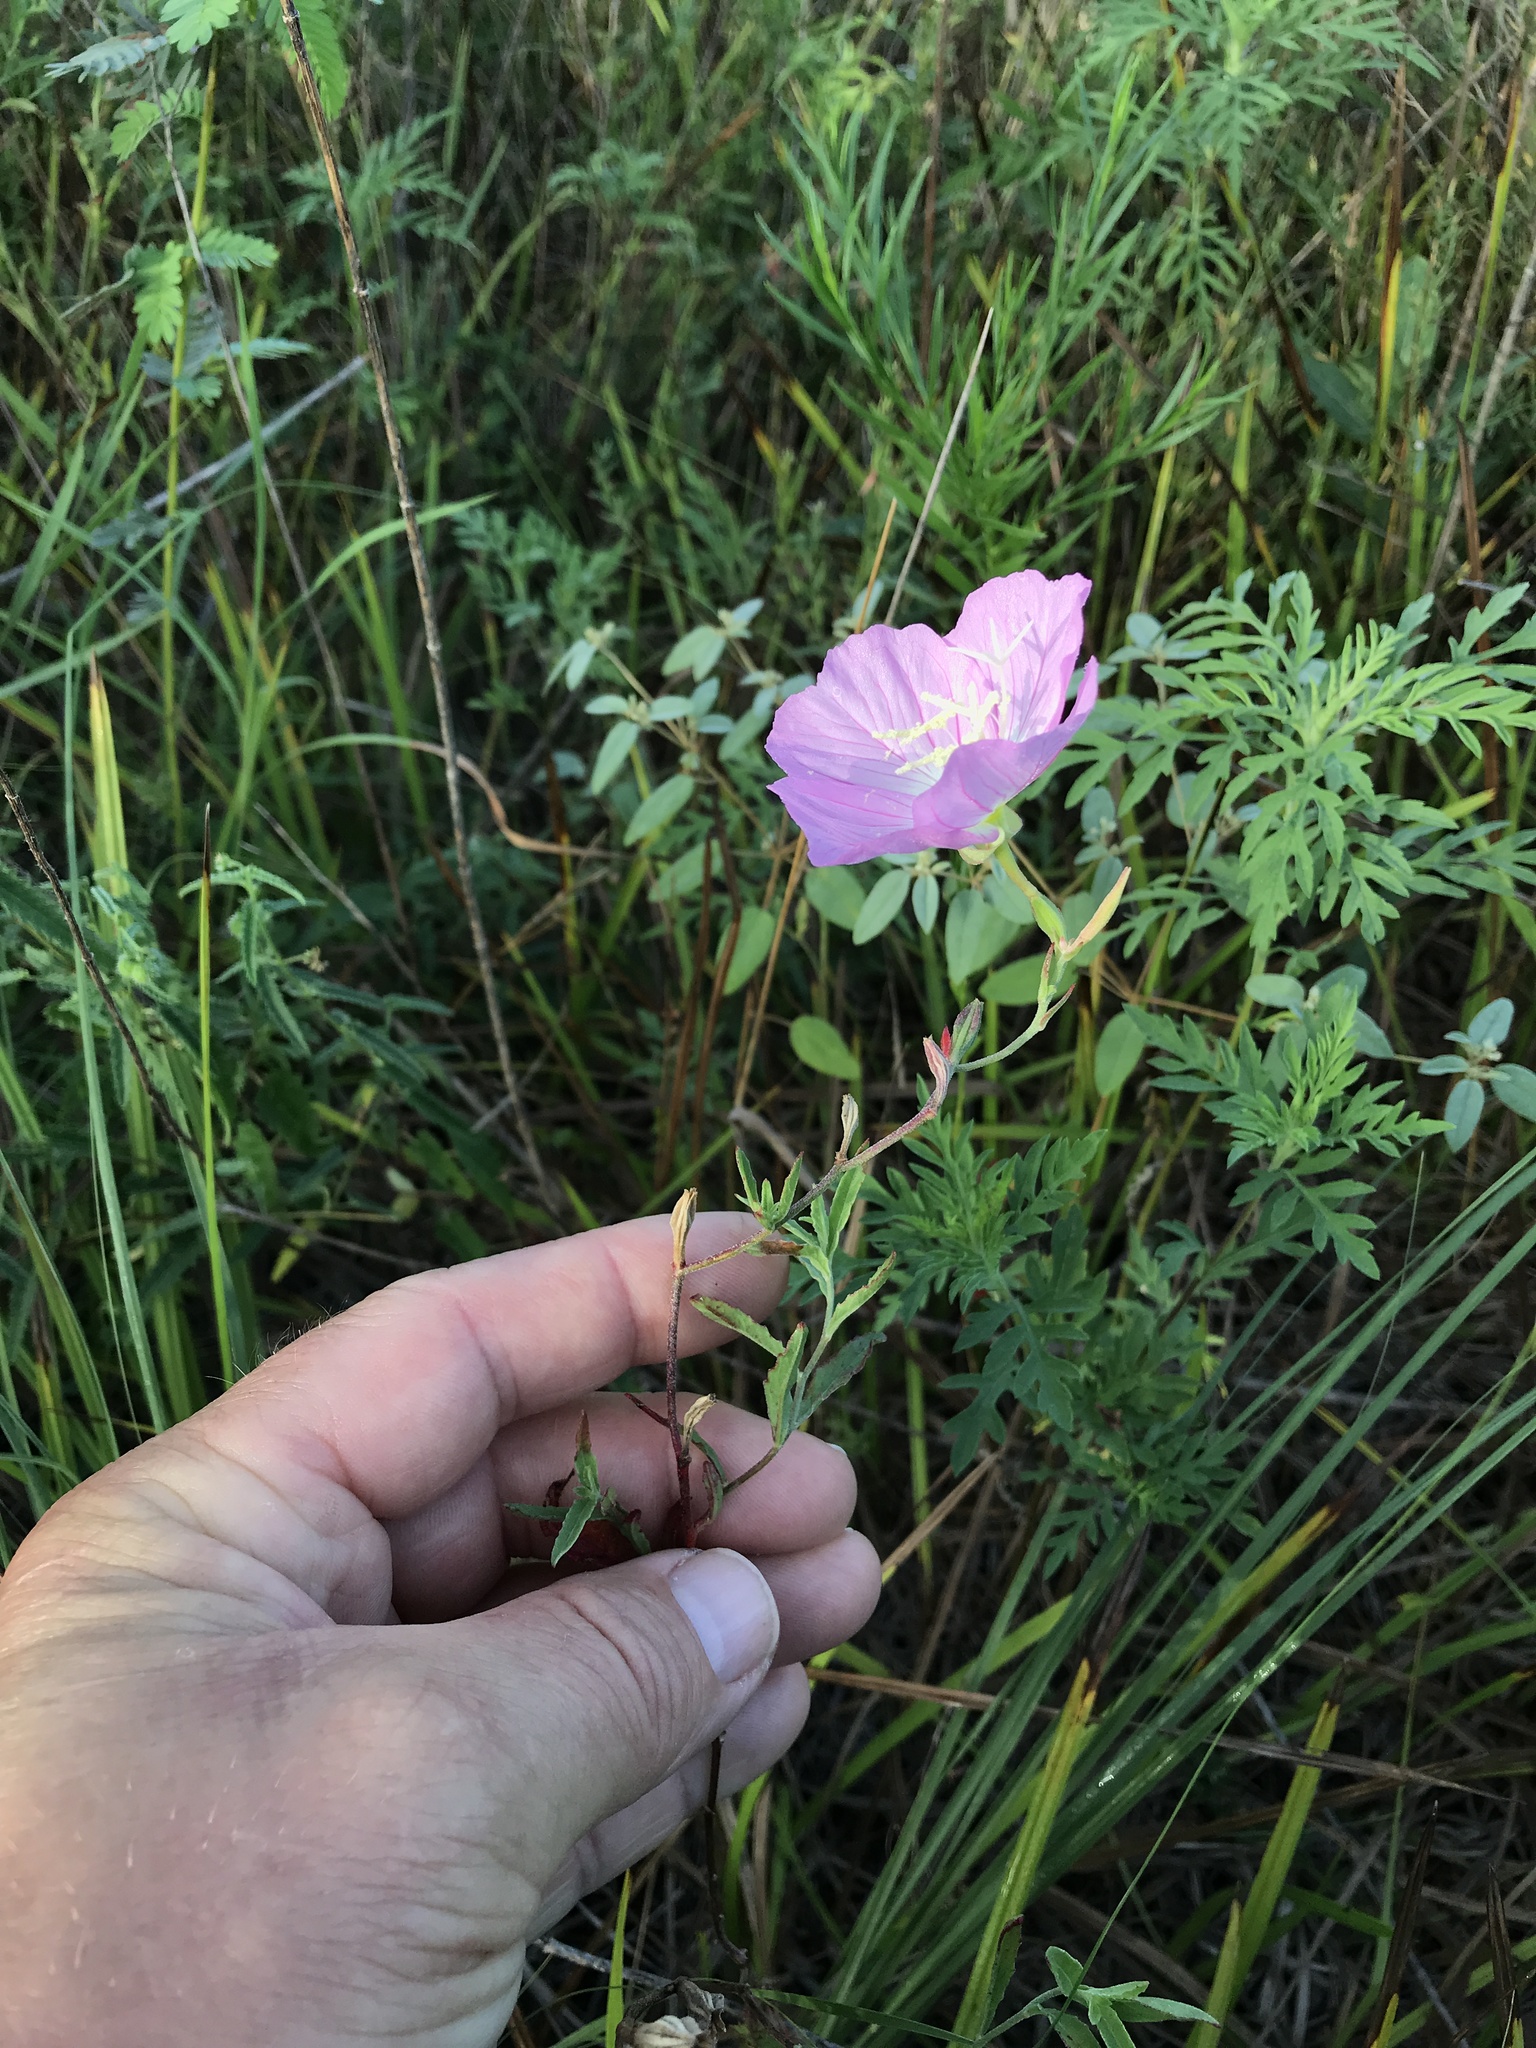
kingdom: Plantae
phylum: Tracheophyta
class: Magnoliopsida
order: Myrtales
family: Onagraceae
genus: Oenothera
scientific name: Oenothera speciosa
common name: White evening-primrose
